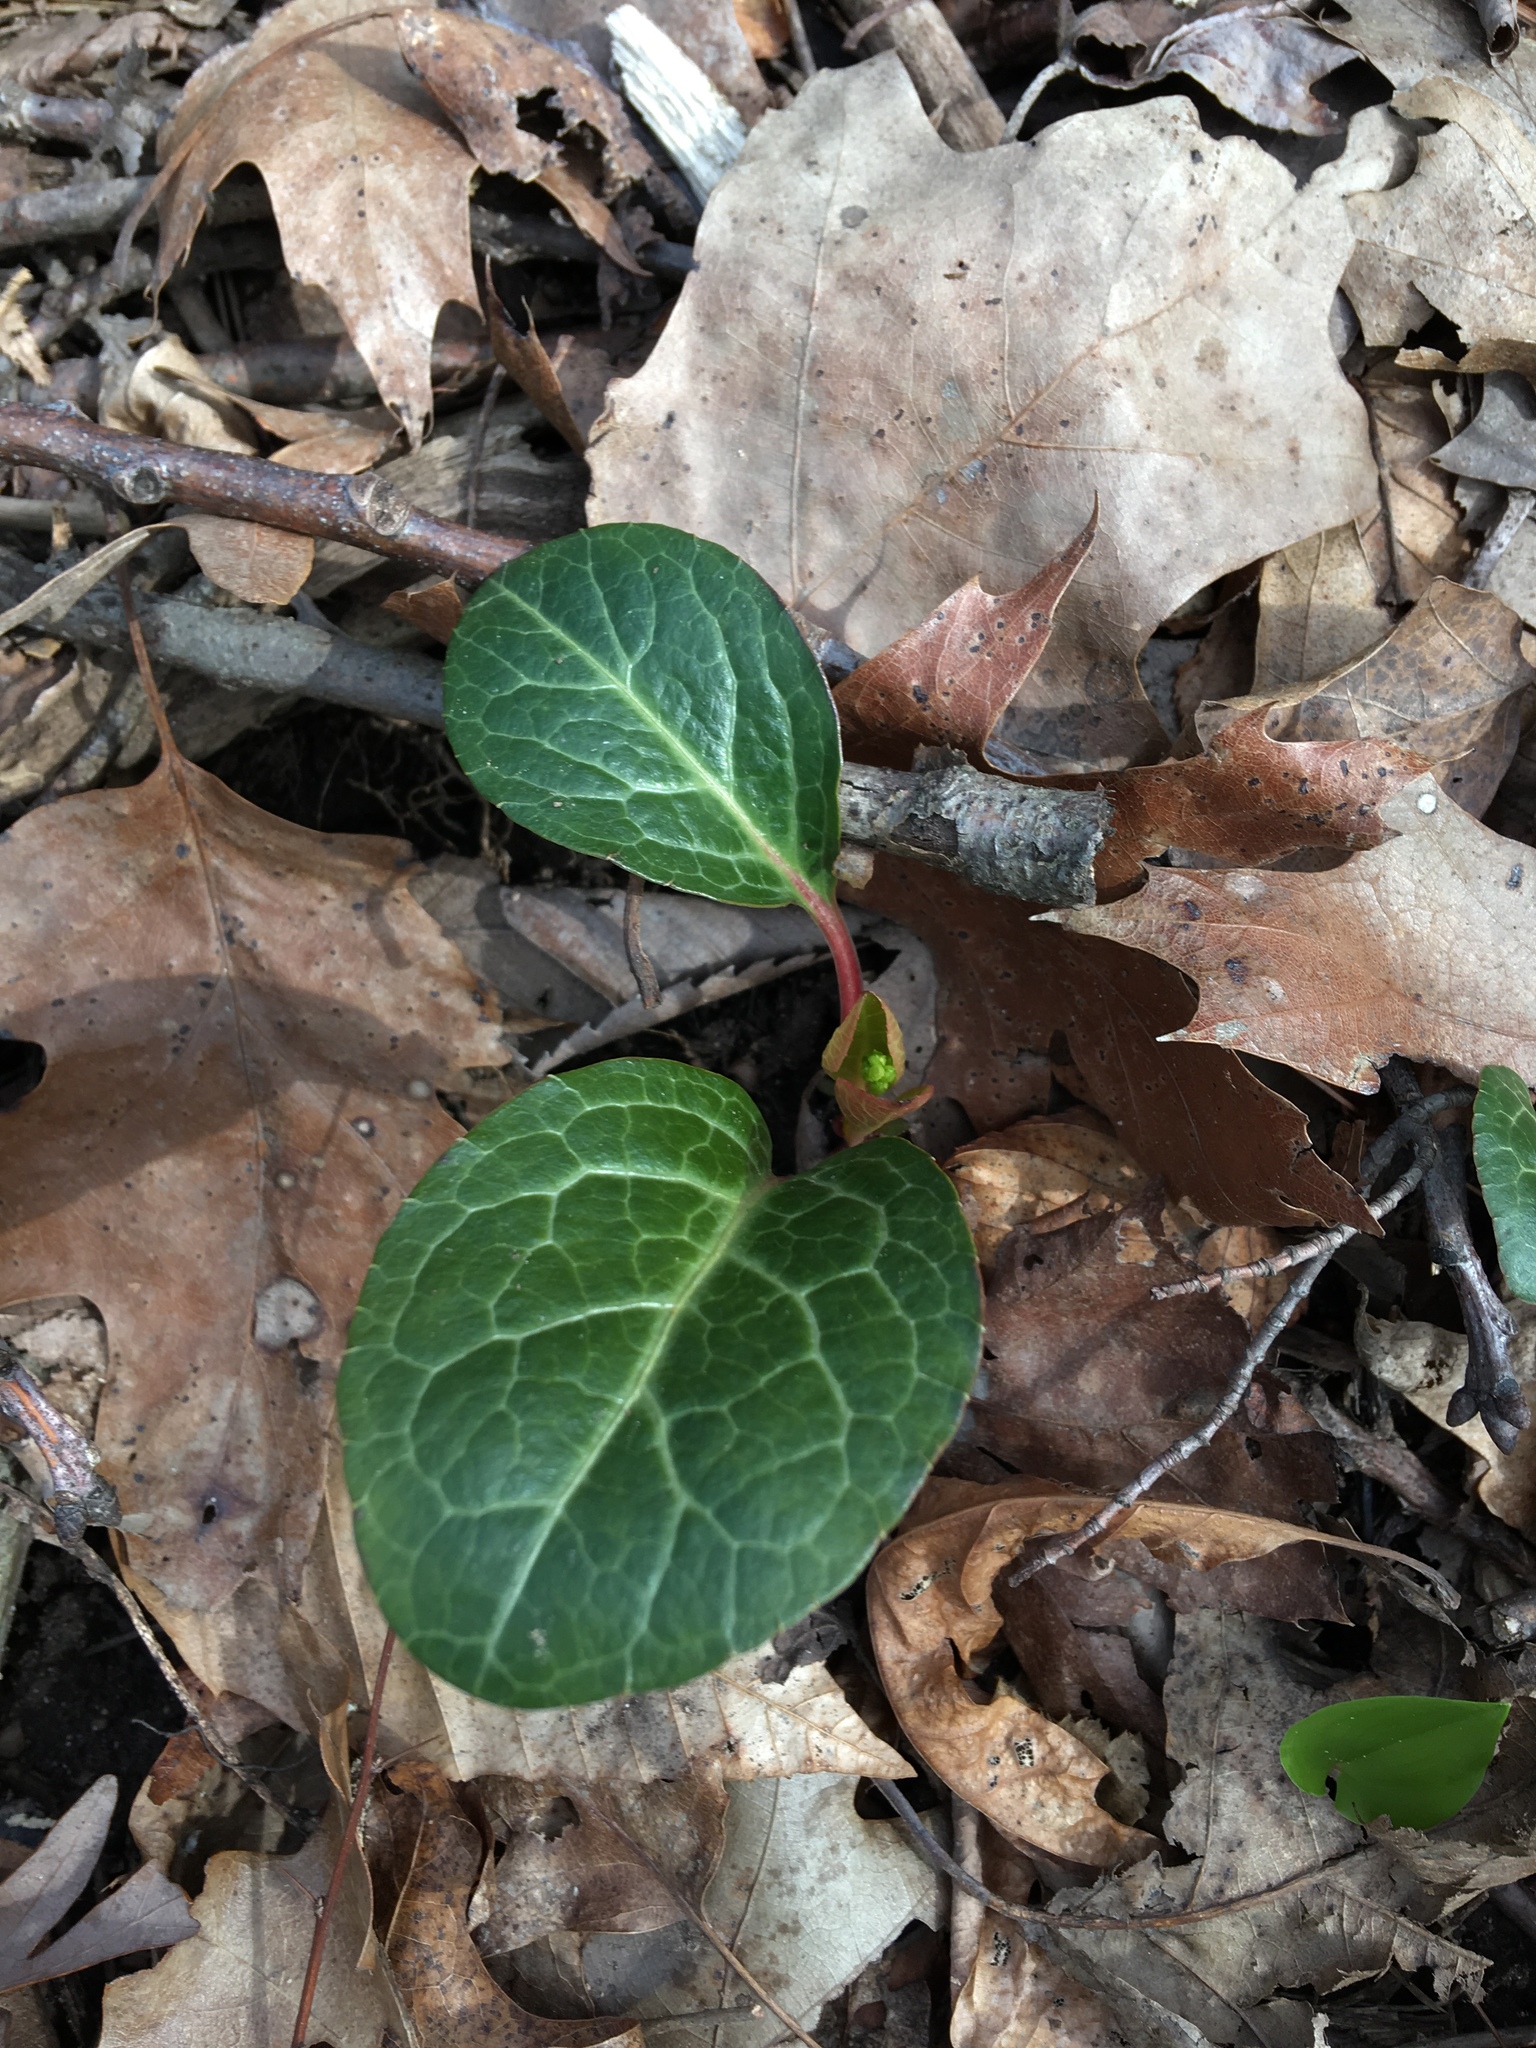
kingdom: Plantae
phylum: Tracheophyta
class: Magnoliopsida
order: Ericales
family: Ericaceae
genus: Pyrola
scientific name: Pyrola americana
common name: American wintergreen
